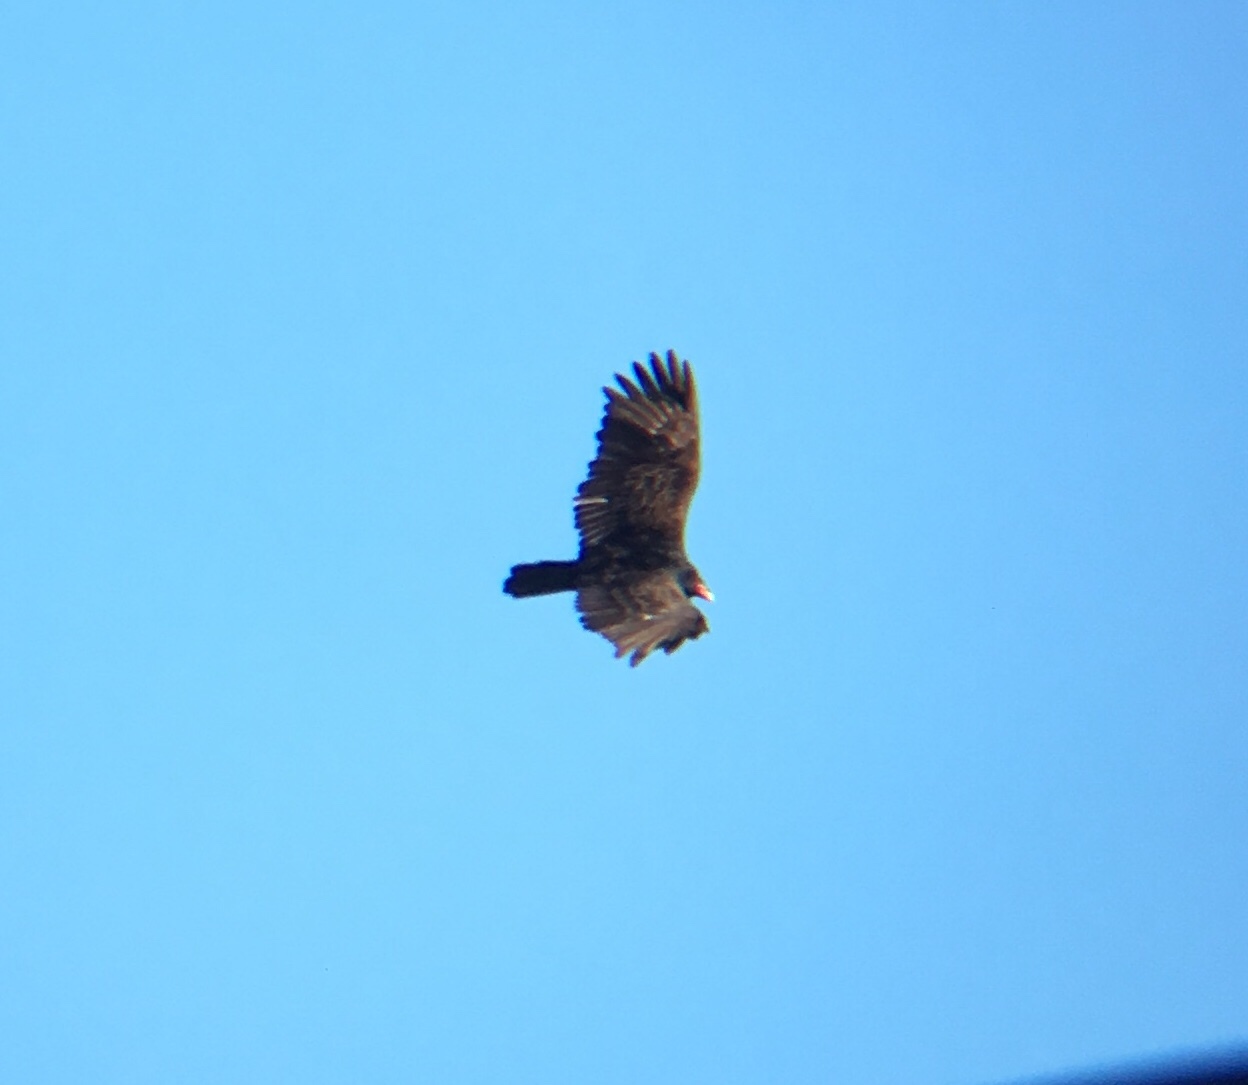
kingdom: Animalia
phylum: Chordata
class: Aves
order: Accipitriformes
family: Cathartidae
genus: Cathartes
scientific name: Cathartes aura
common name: Turkey vulture
